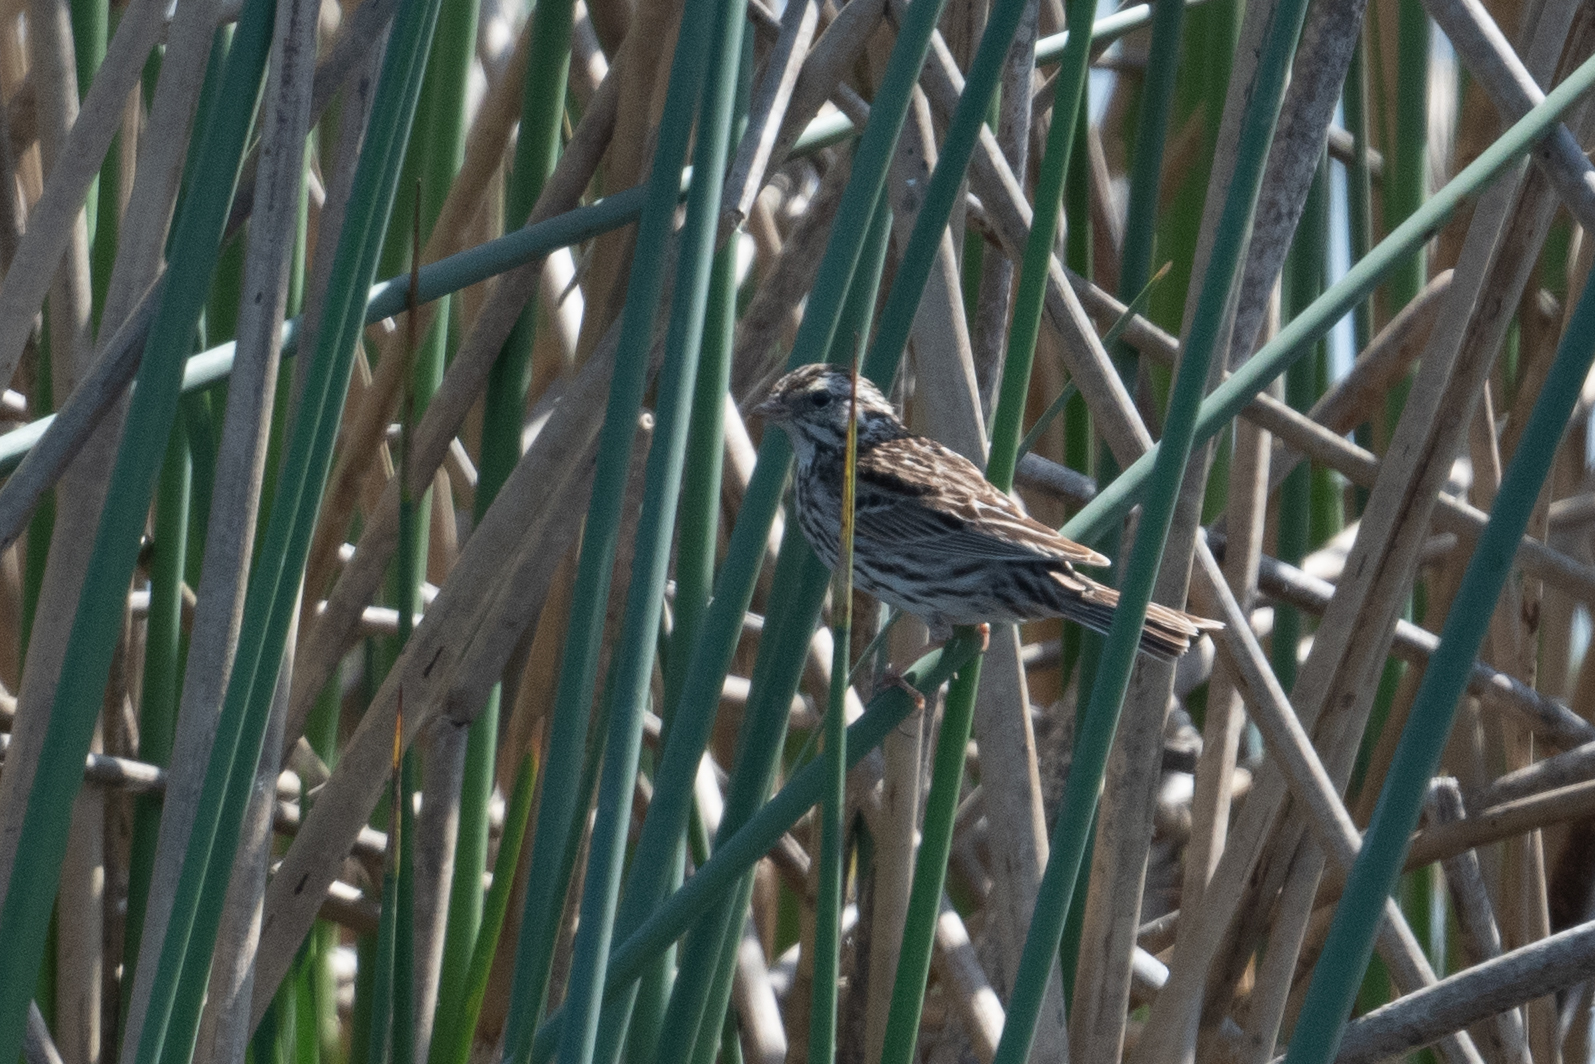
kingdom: Animalia
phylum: Chordata
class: Aves
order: Passeriformes
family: Passerellidae
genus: Passerculus
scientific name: Passerculus sandwichensis
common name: Savannah sparrow
